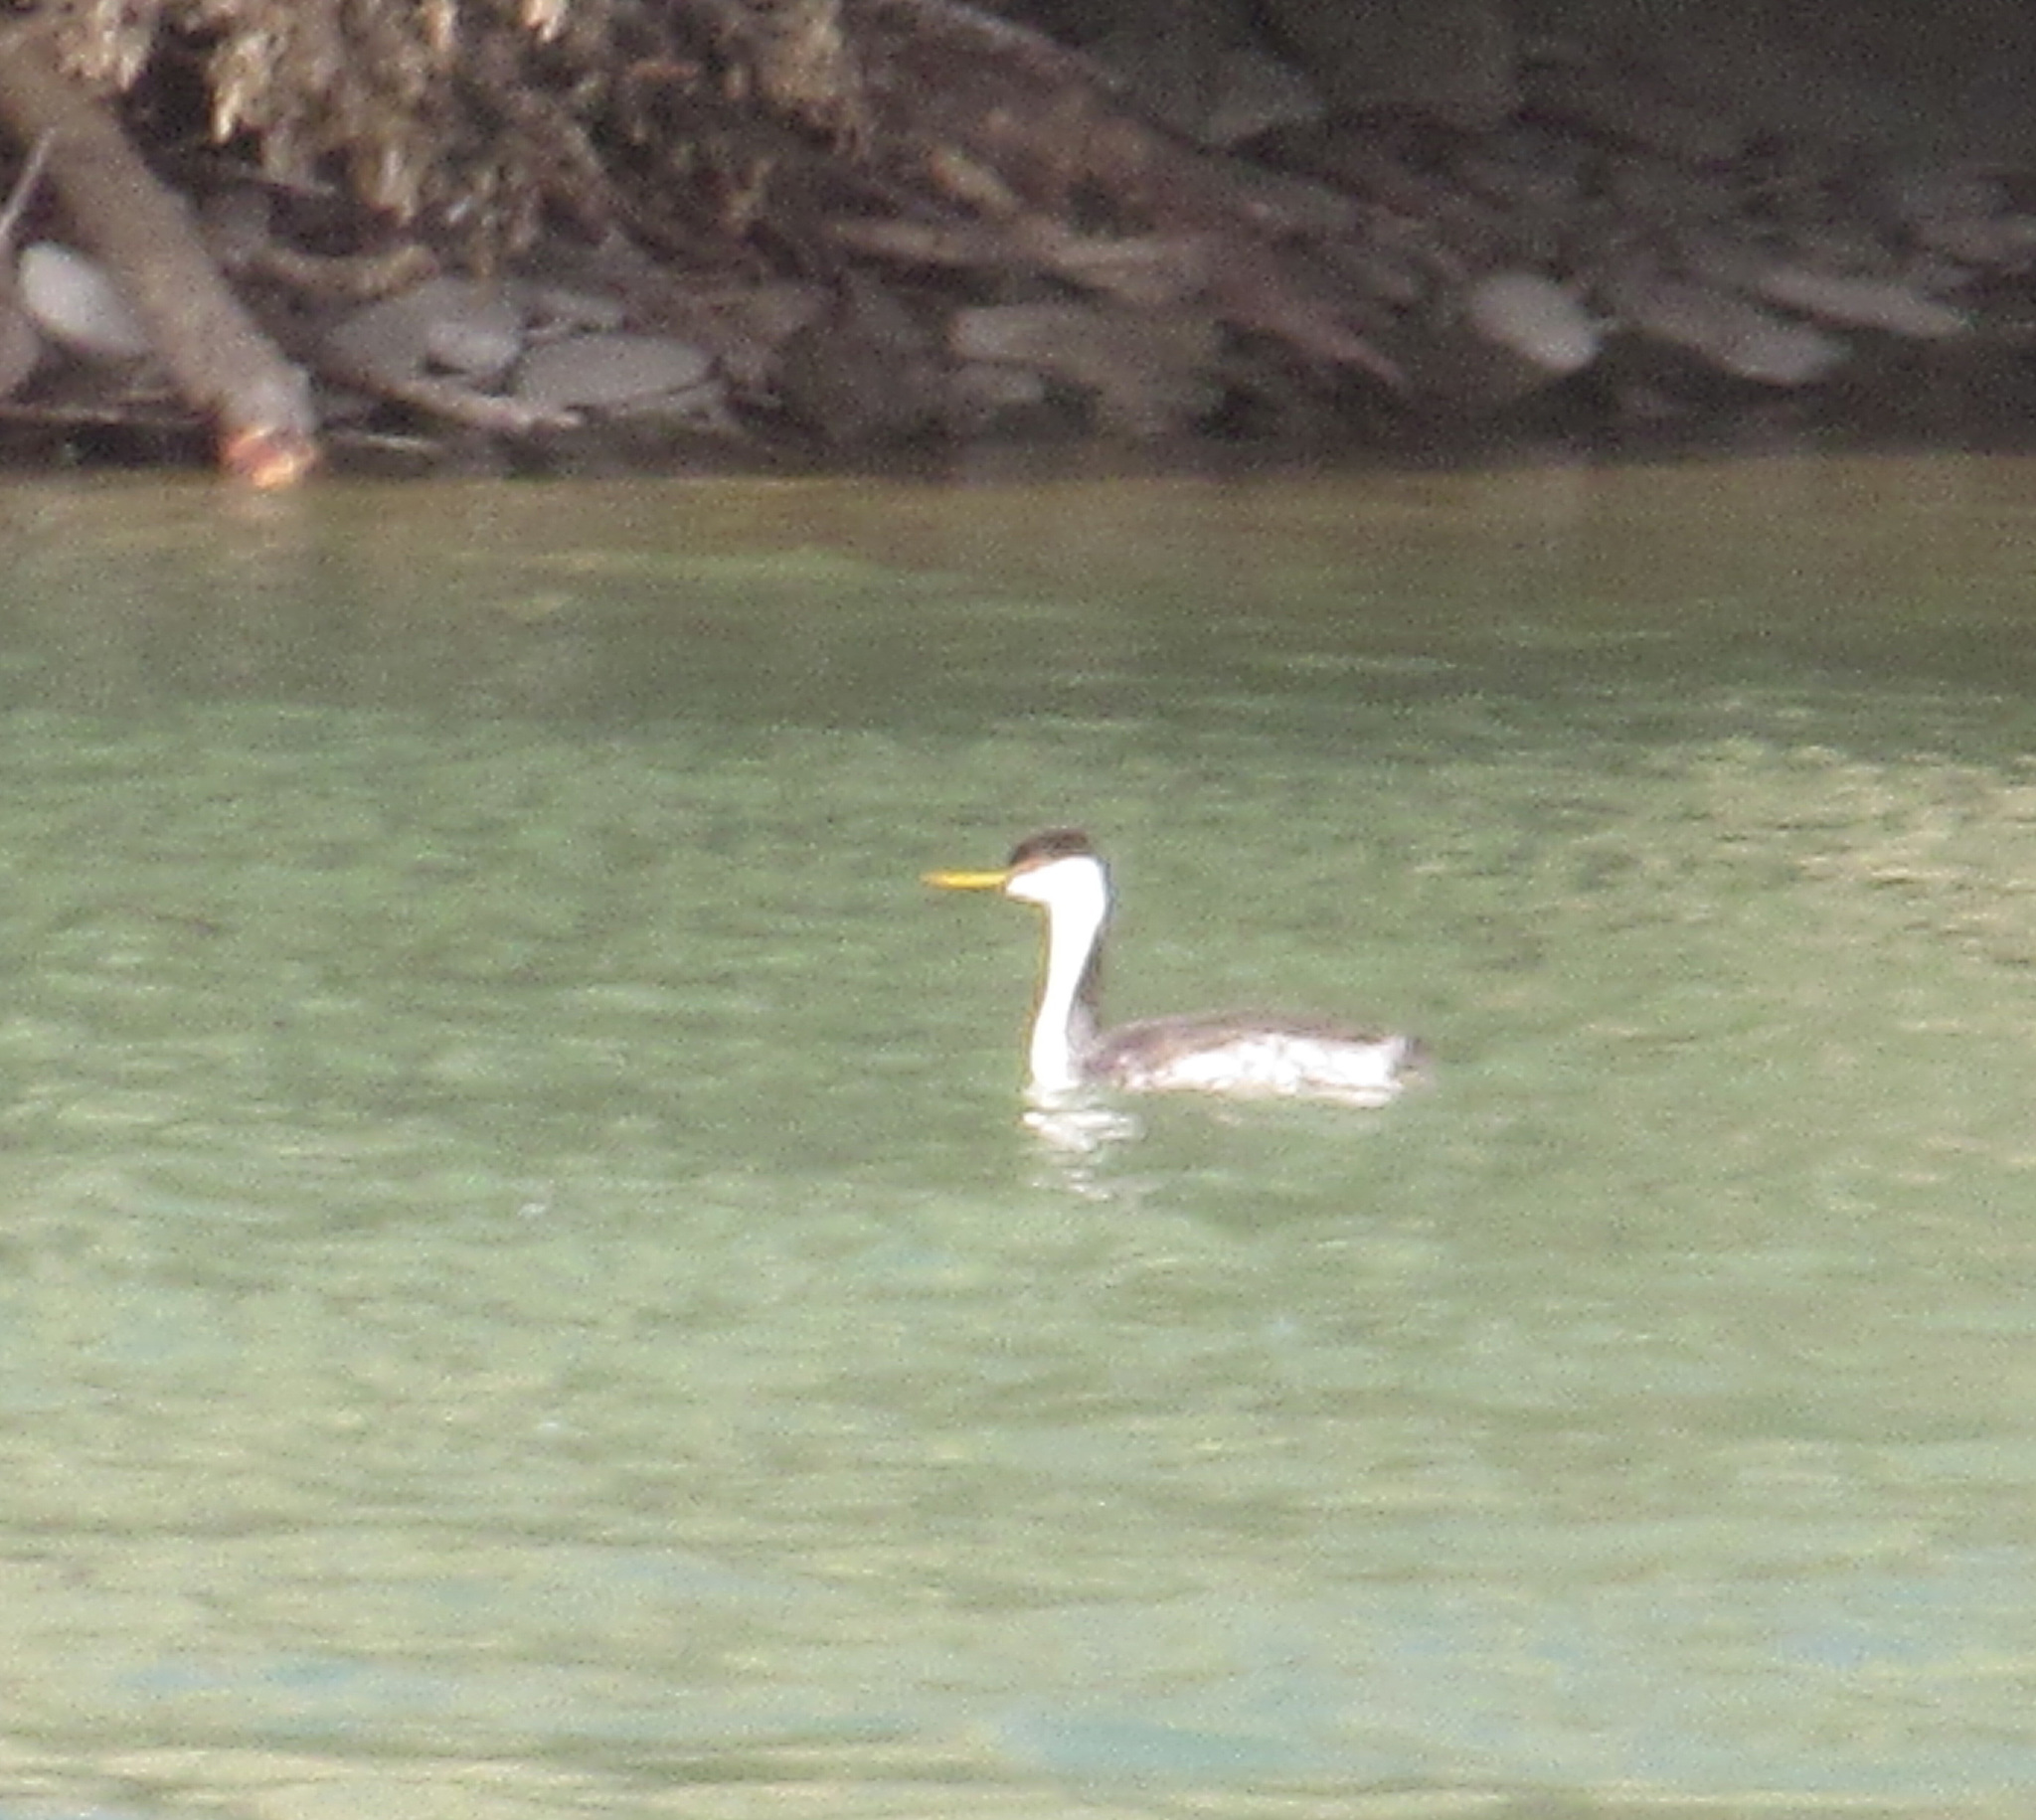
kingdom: Animalia
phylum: Chordata
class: Aves
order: Podicipediformes
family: Podicipedidae
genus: Aechmophorus
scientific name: Aechmophorus occidentalis
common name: Western grebe
